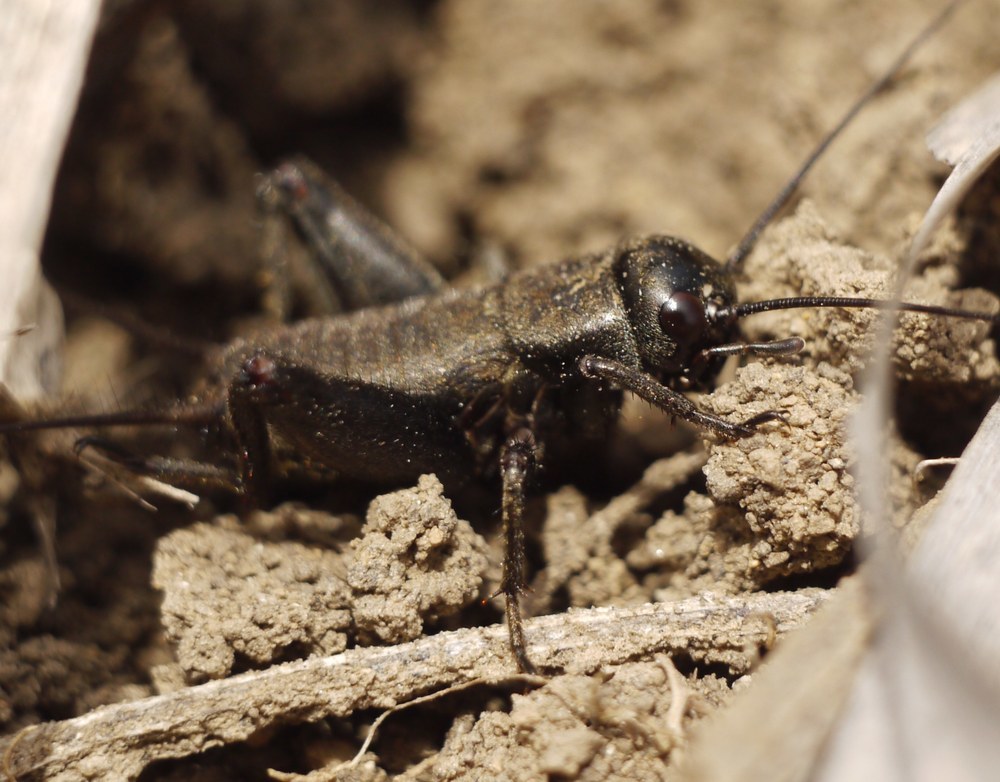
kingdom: Animalia
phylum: Arthropoda
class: Insecta
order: Orthoptera
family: Gryllidae
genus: Melanogryllus
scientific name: Melanogryllus desertus
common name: Desert cricket
